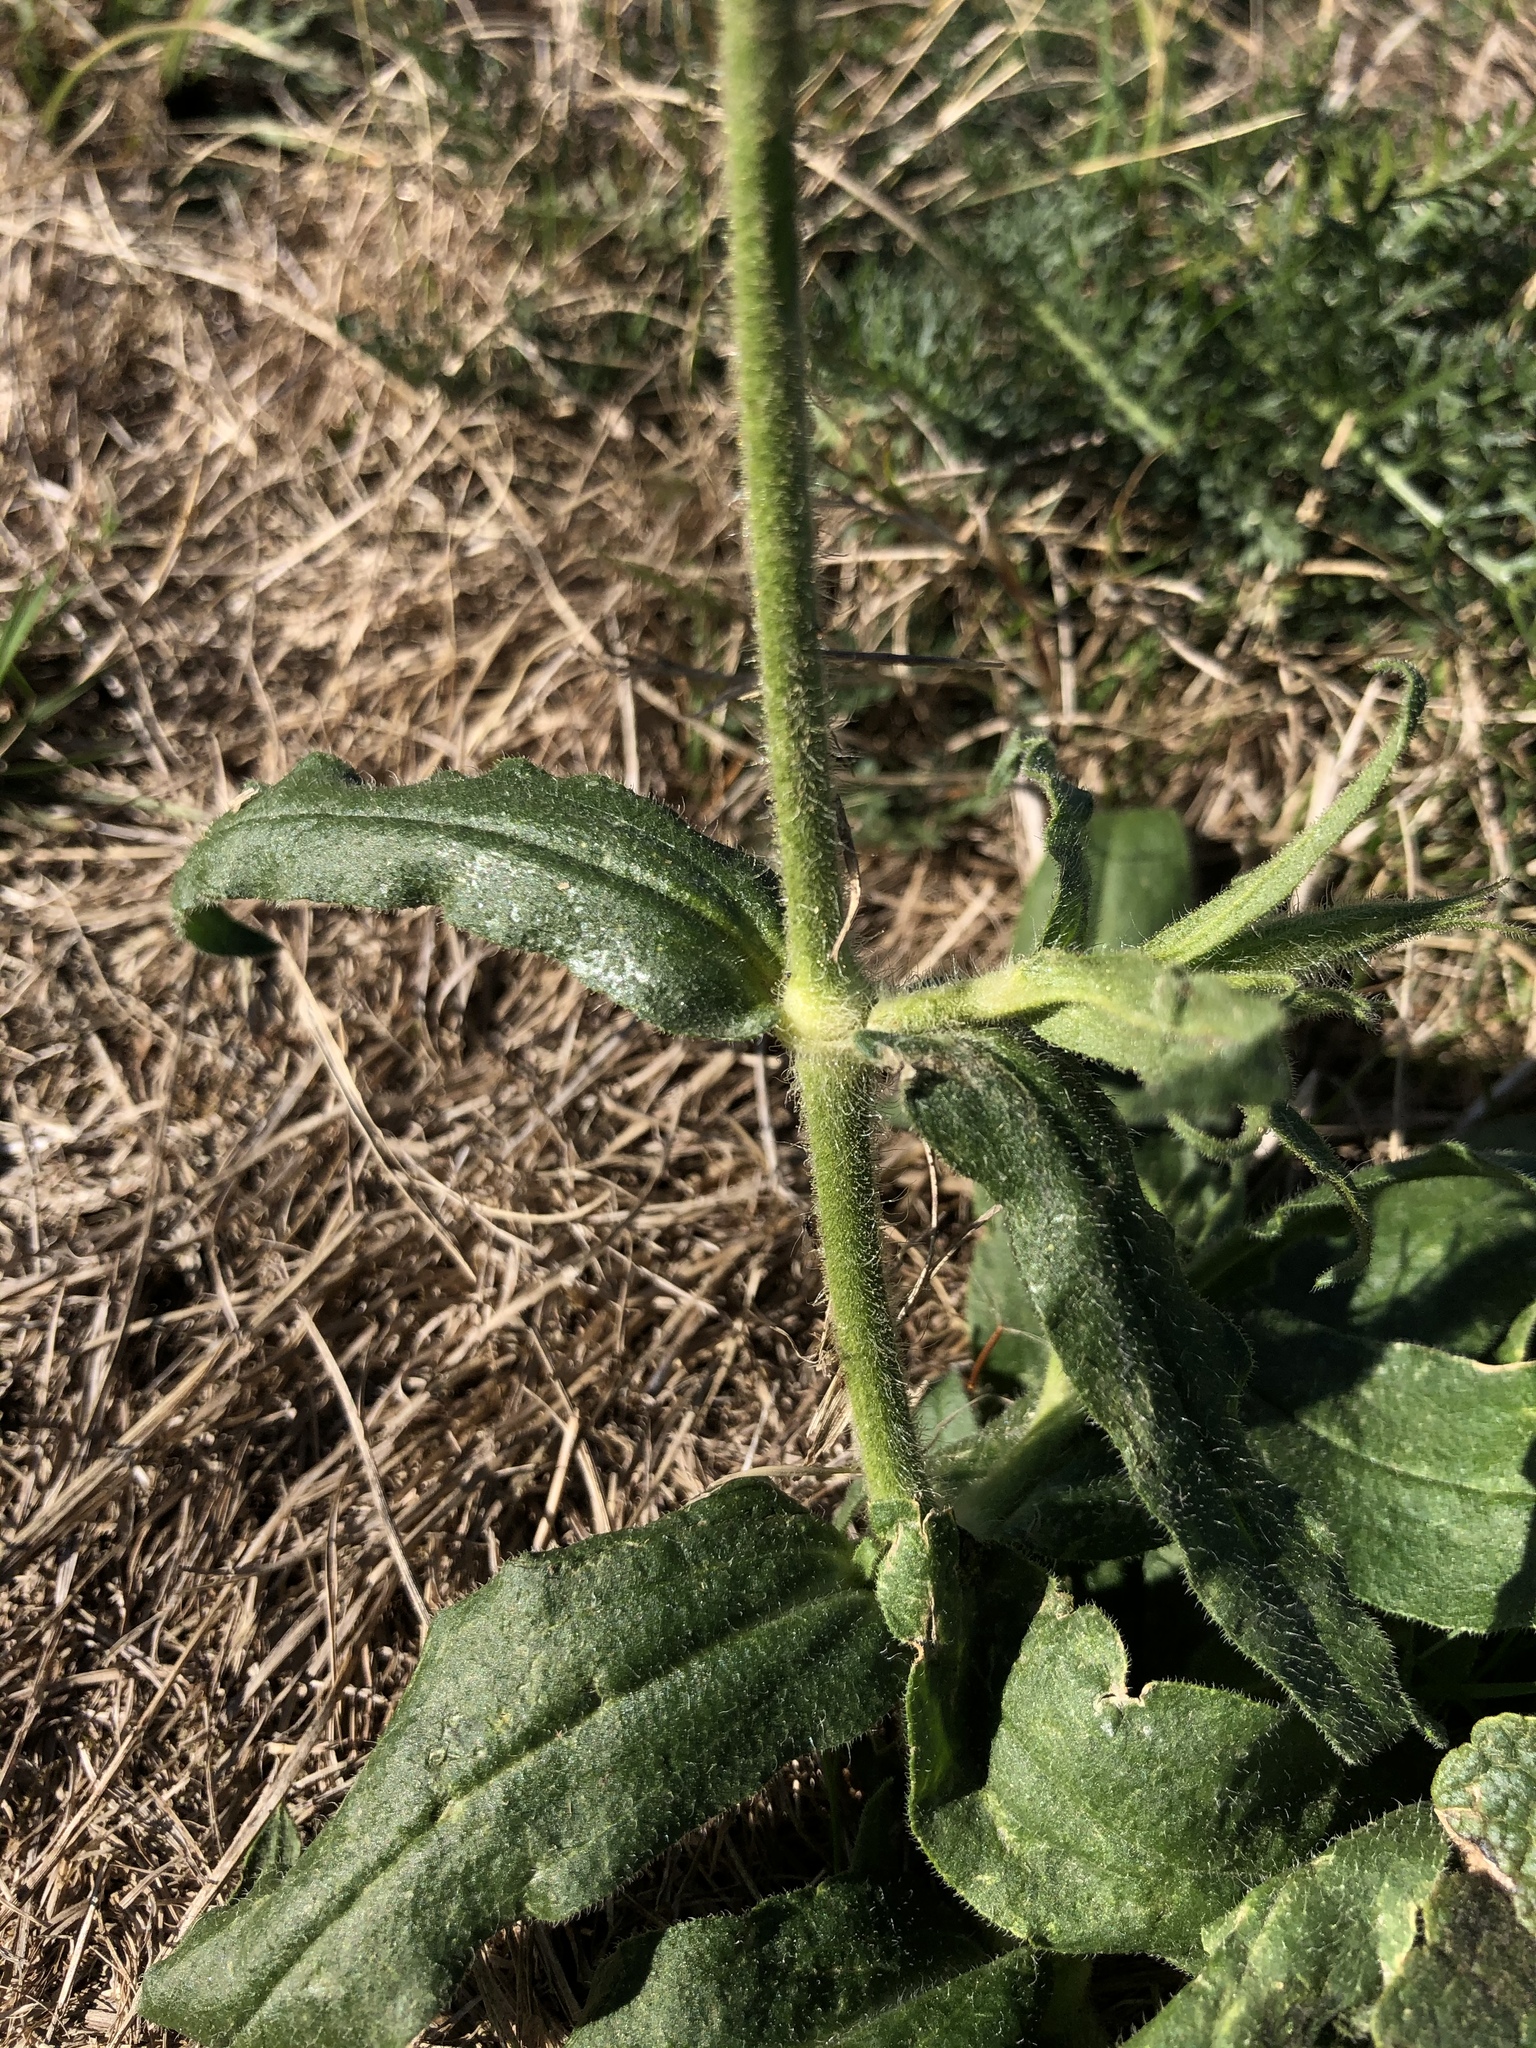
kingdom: Plantae
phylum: Tracheophyta
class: Magnoliopsida
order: Caryophyllales
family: Caryophyllaceae
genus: Silene
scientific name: Silene noctiflora
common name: Night-flowering catchfly
